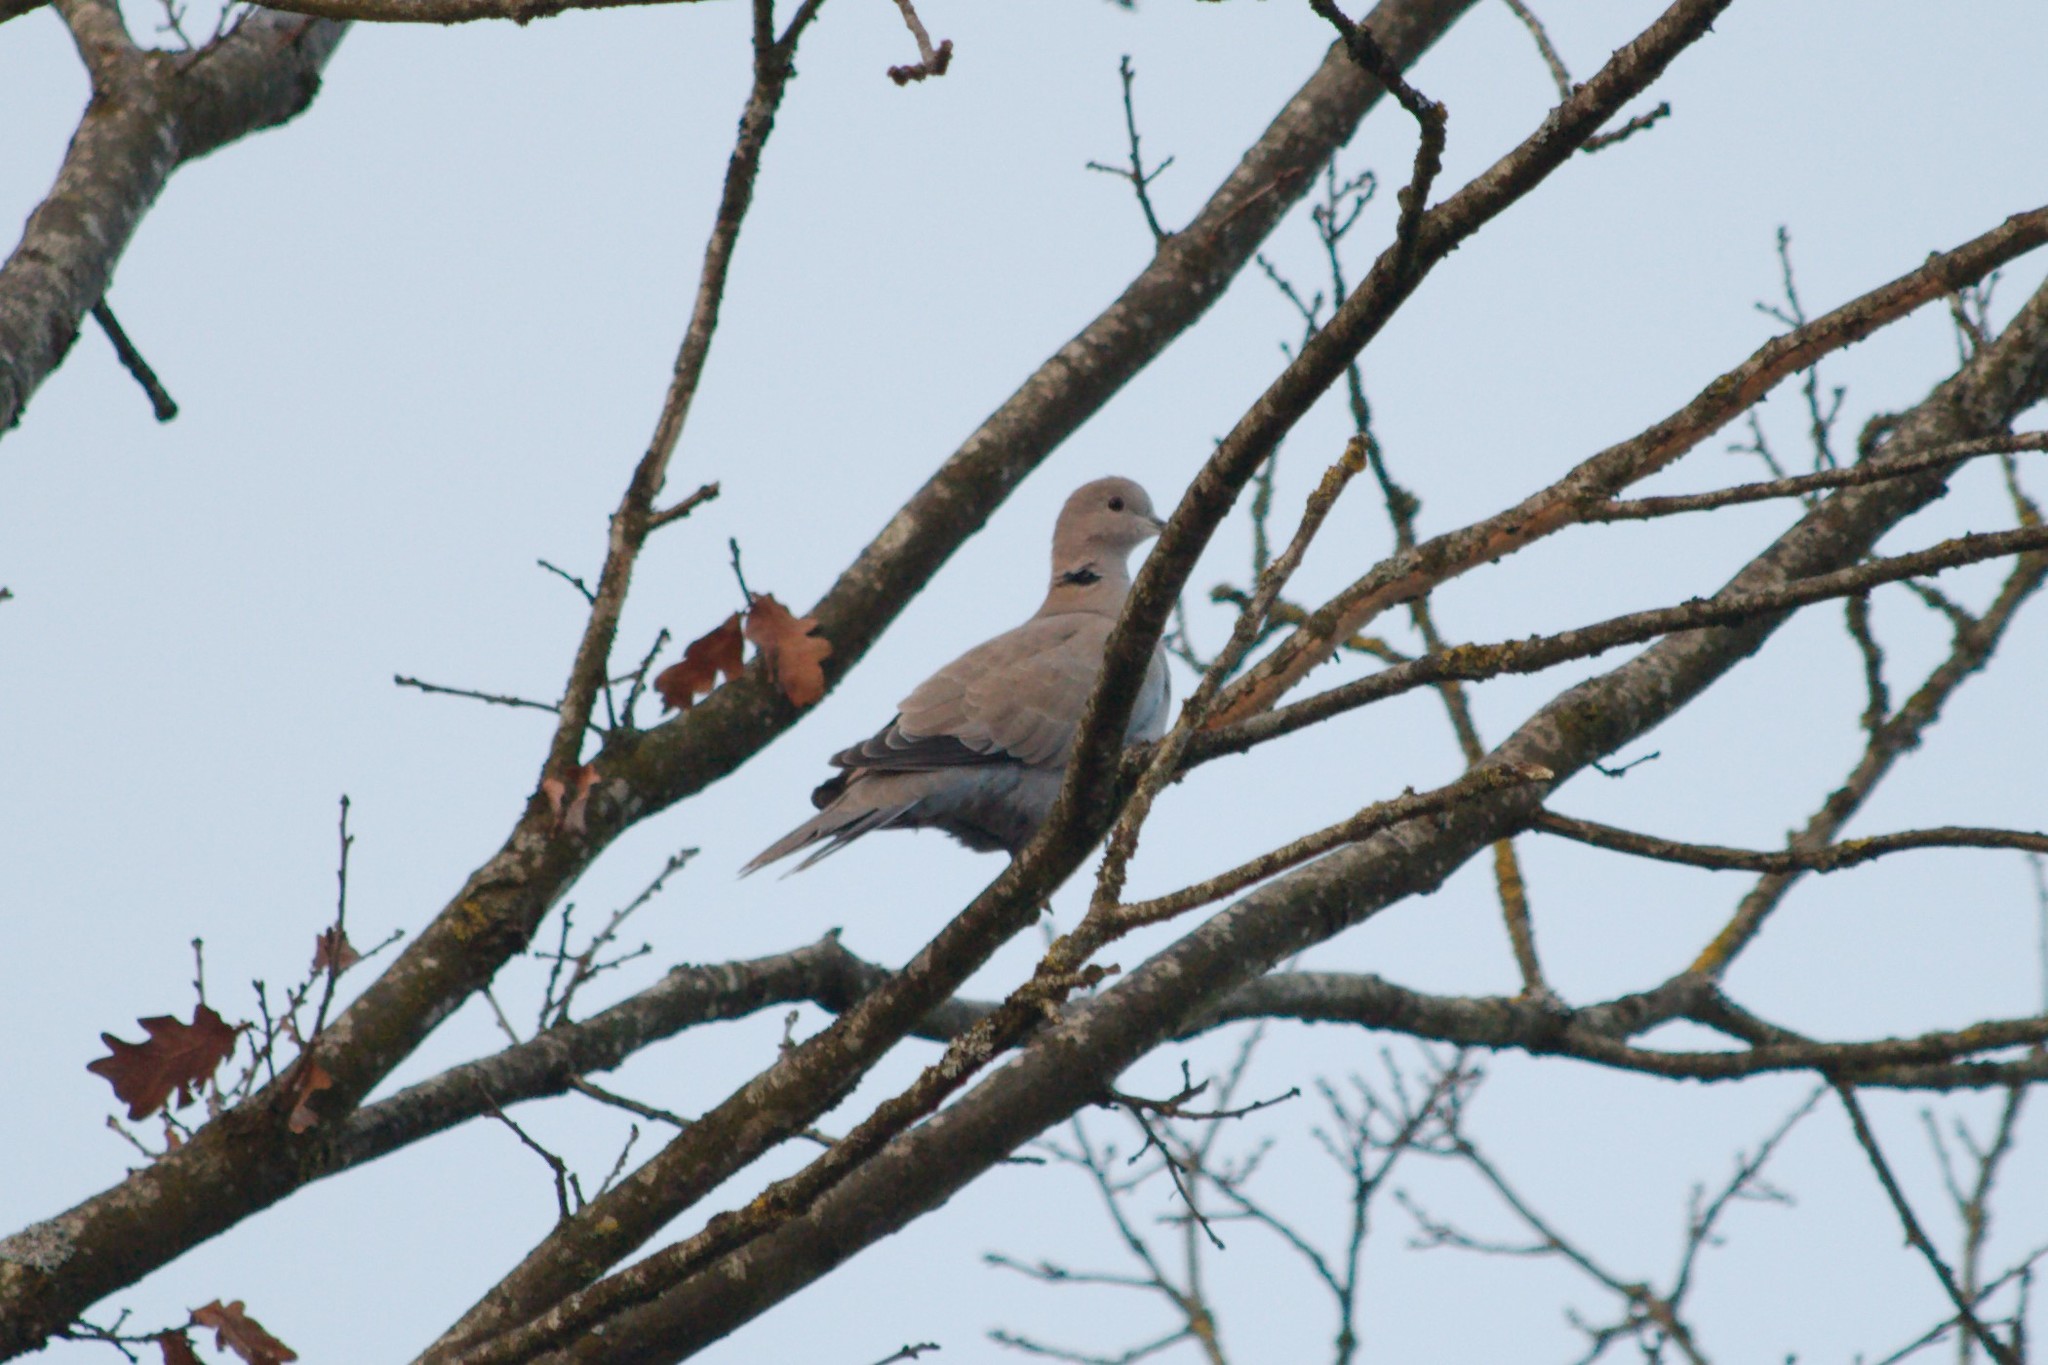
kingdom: Animalia
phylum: Chordata
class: Aves
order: Columbiformes
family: Columbidae
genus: Streptopelia
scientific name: Streptopelia decaocto
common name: Eurasian collared dove
